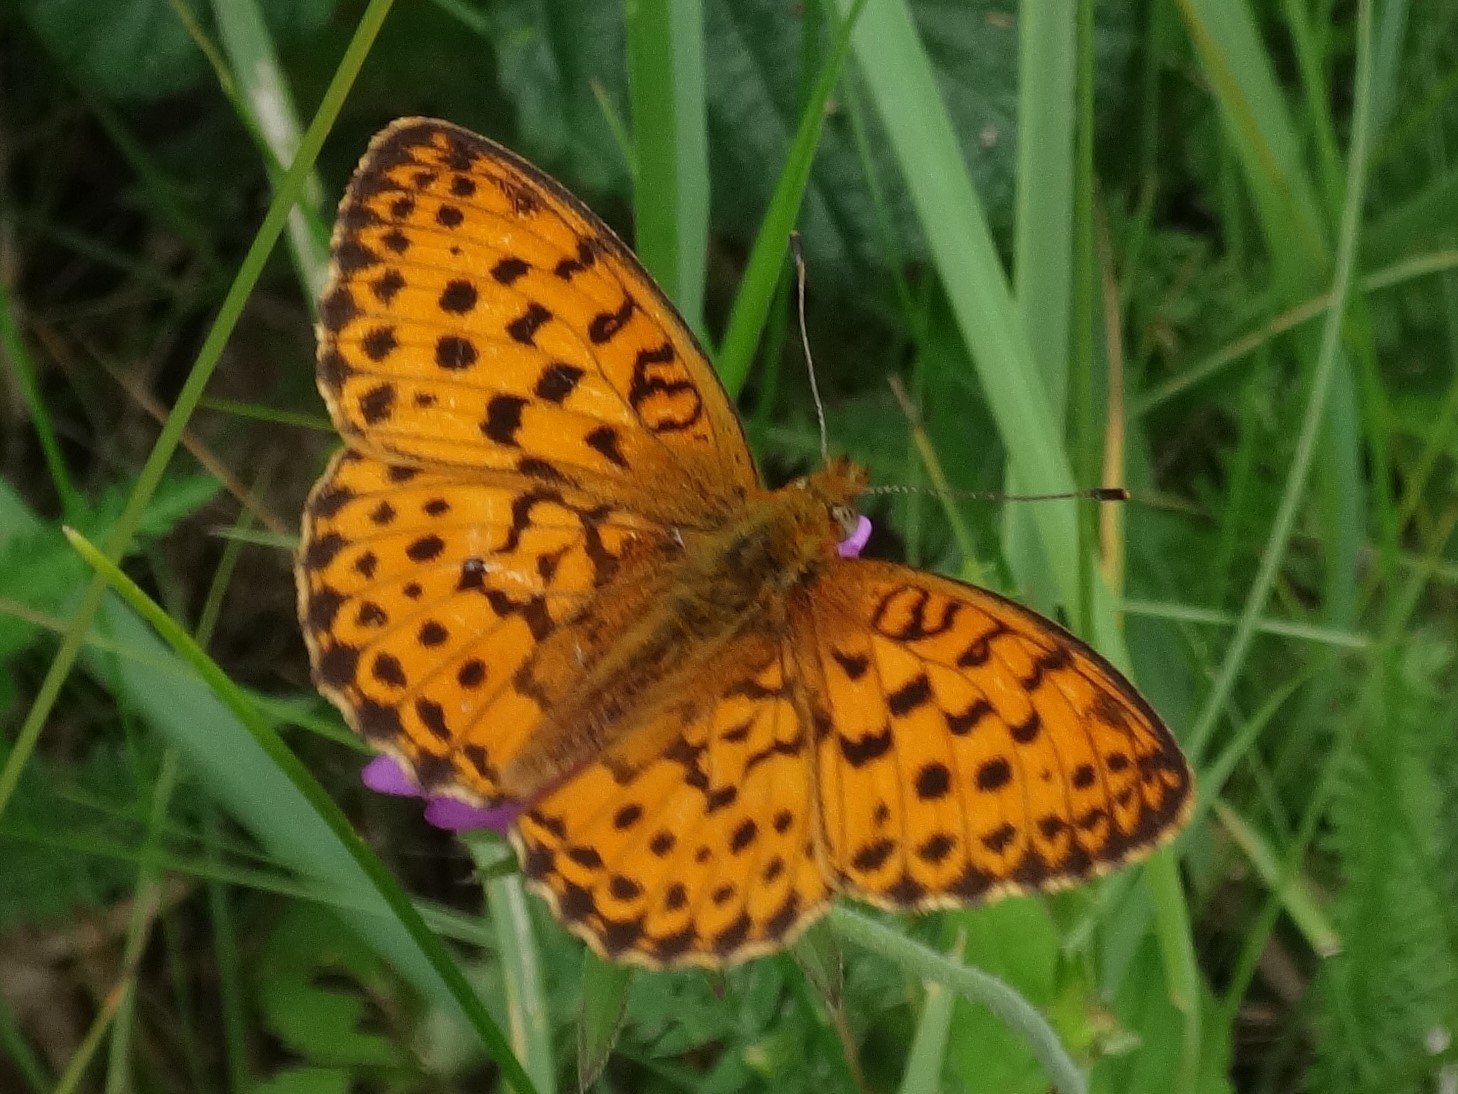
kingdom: Animalia
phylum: Arthropoda
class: Insecta
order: Lepidoptera
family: Nymphalidae
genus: Brenthis
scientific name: Brenthis daphne
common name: Marbled fritillary
